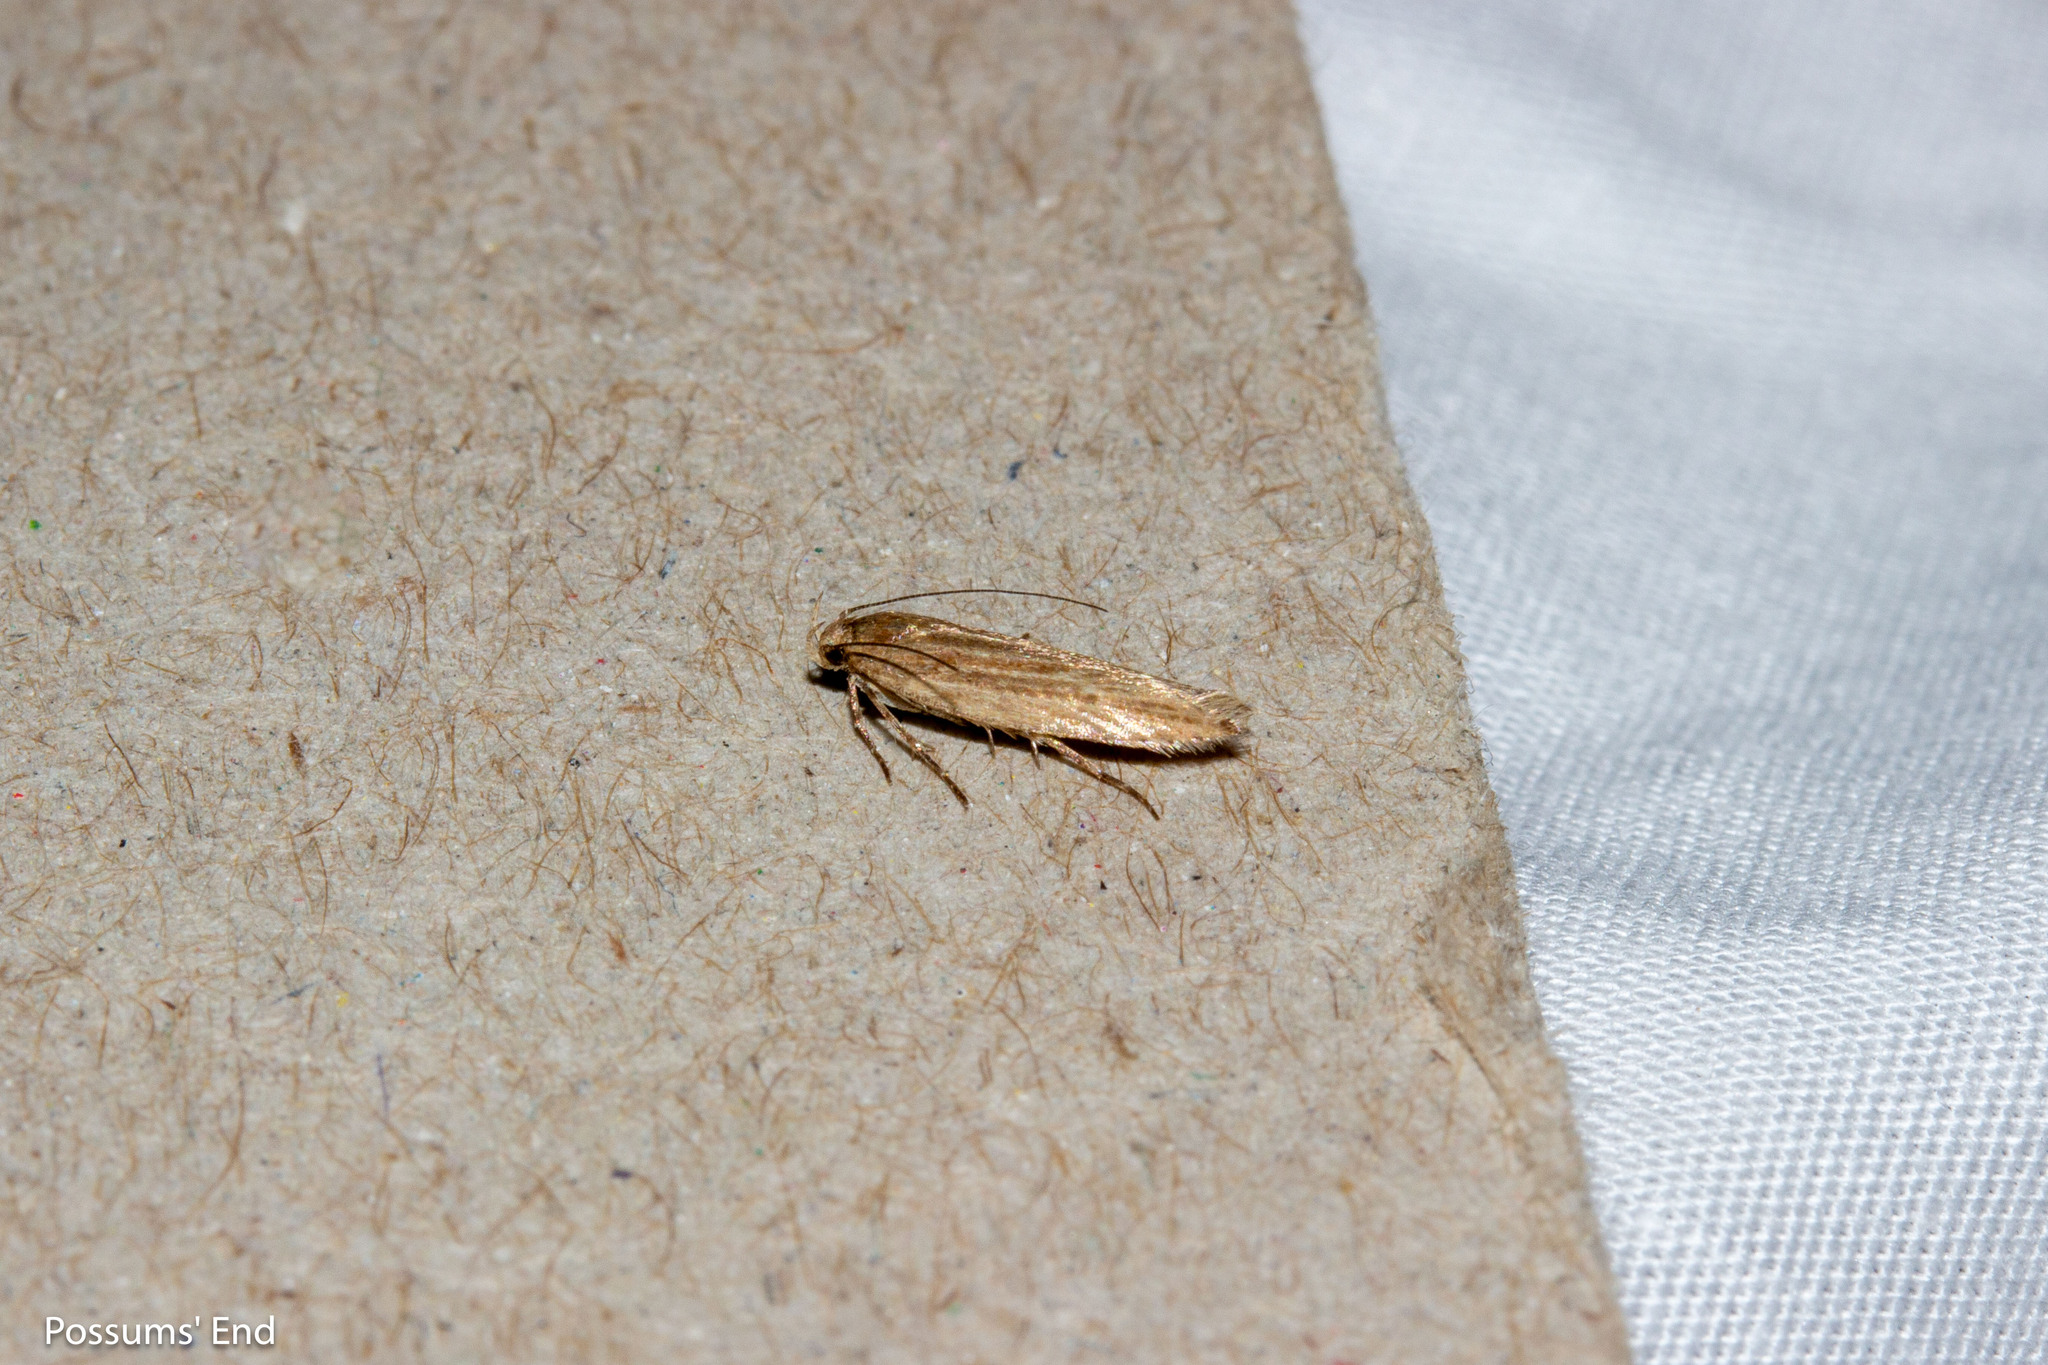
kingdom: Animalia
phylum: Arthropoda
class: Insecta
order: Lepidoptera
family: Gelechiidae
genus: Kiwaia
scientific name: Kiwaia pharetria
